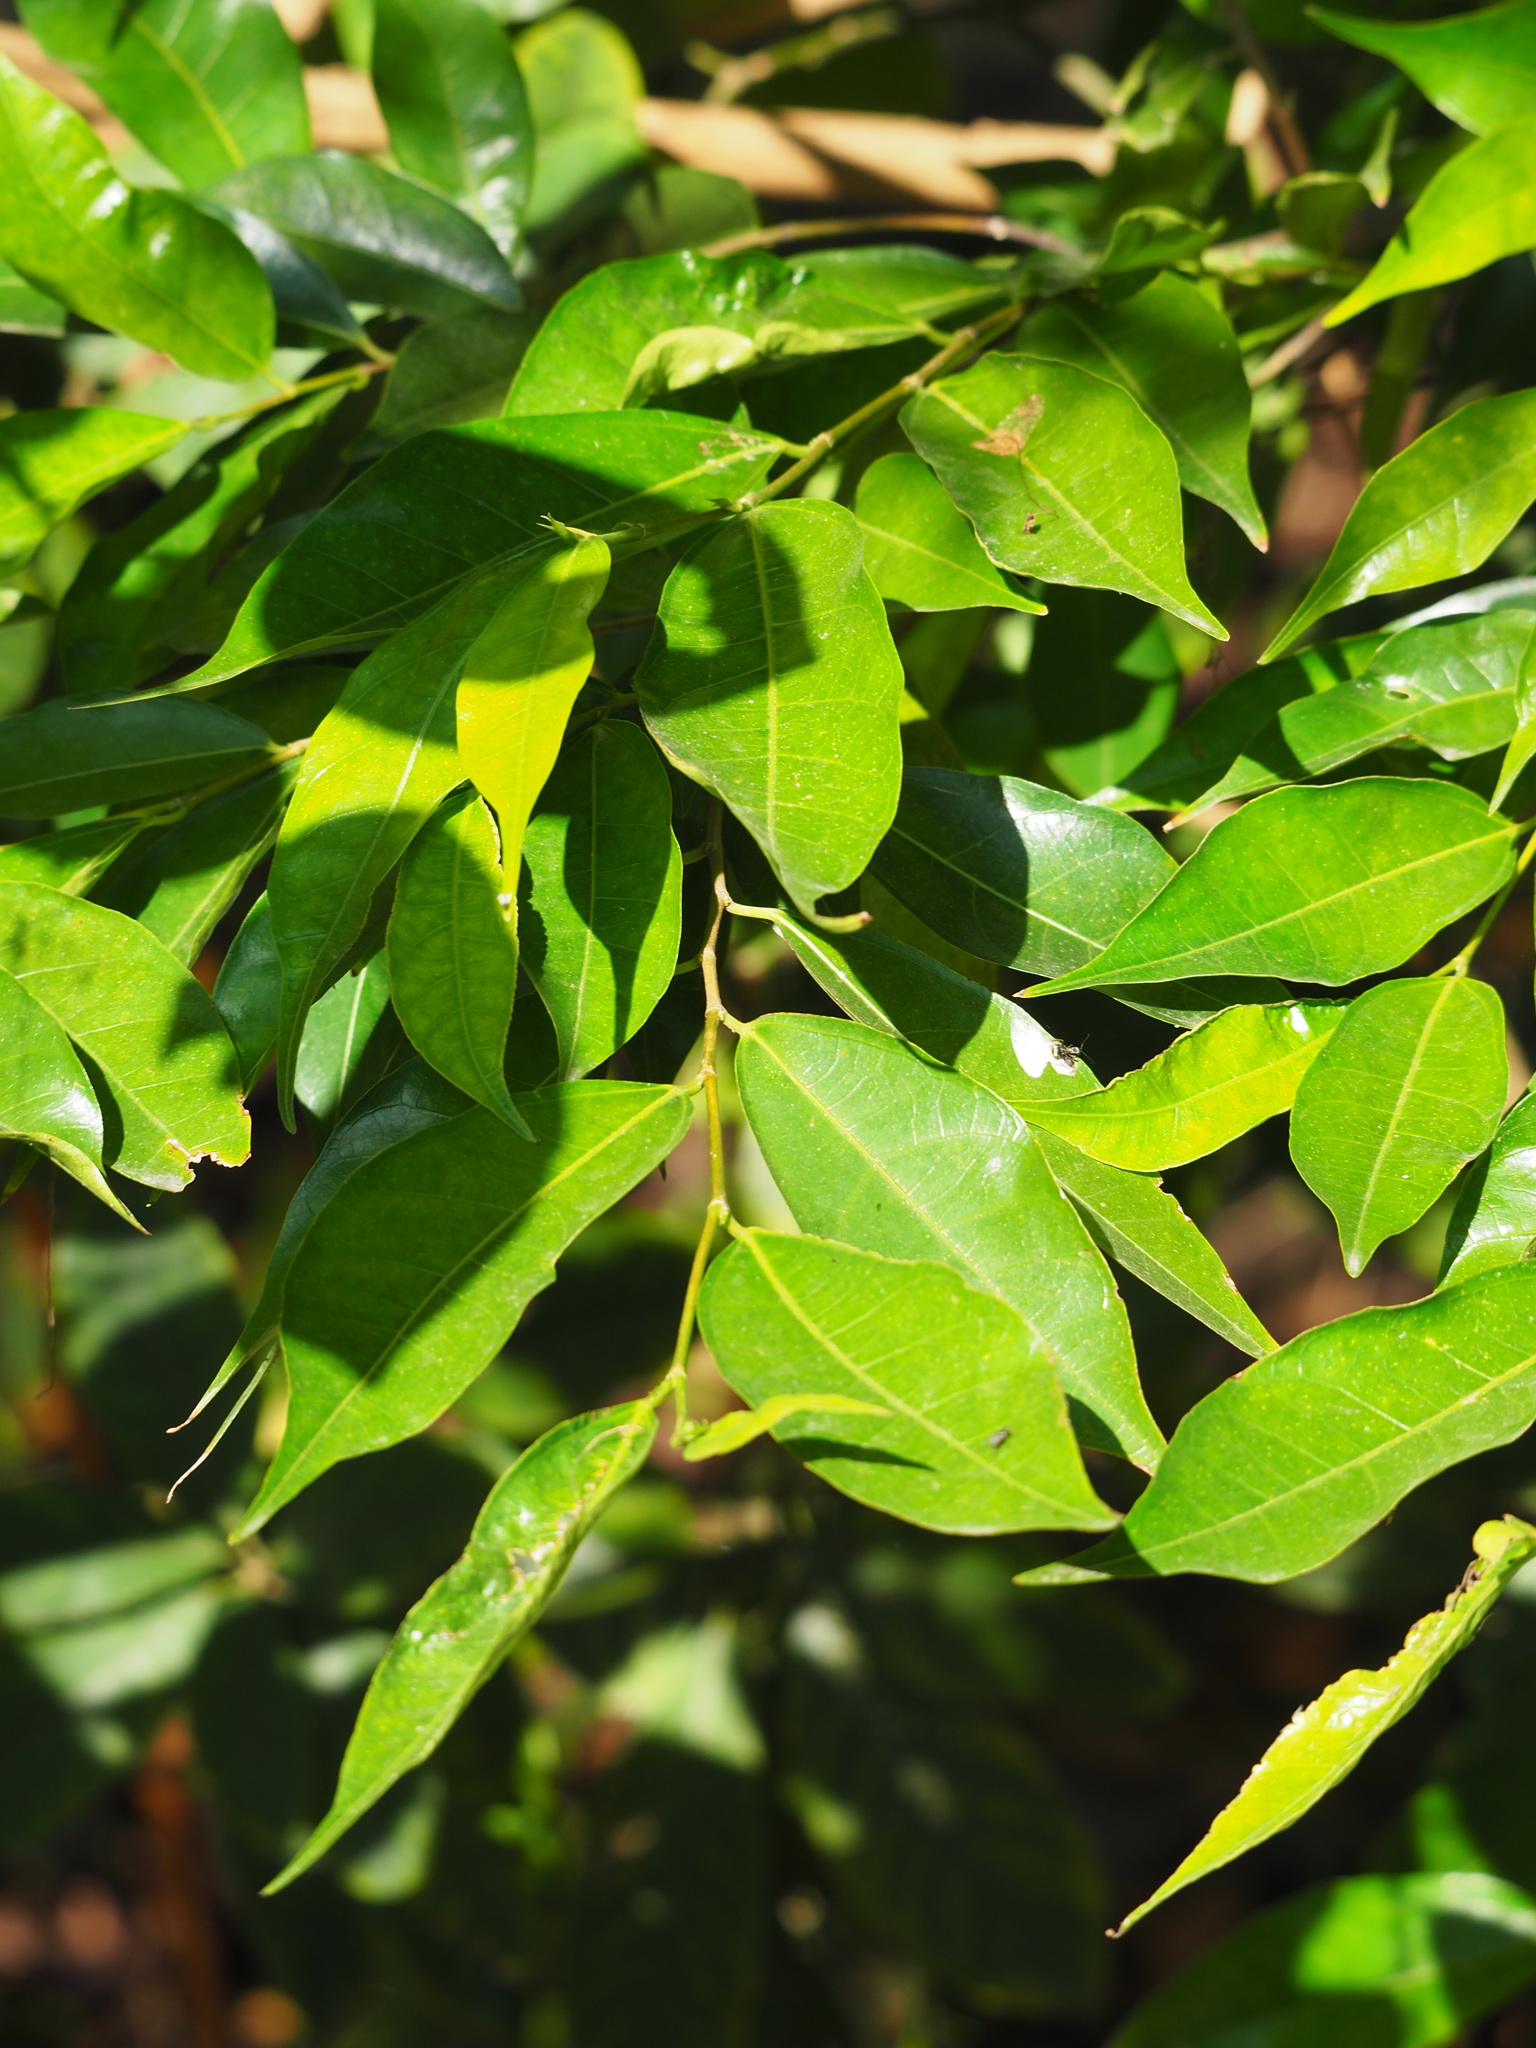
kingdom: Plantae
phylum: Tracheophyta
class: Magnoliopsida
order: Rosales
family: Moraceae
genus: Ficus
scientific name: Ficus ampelos
